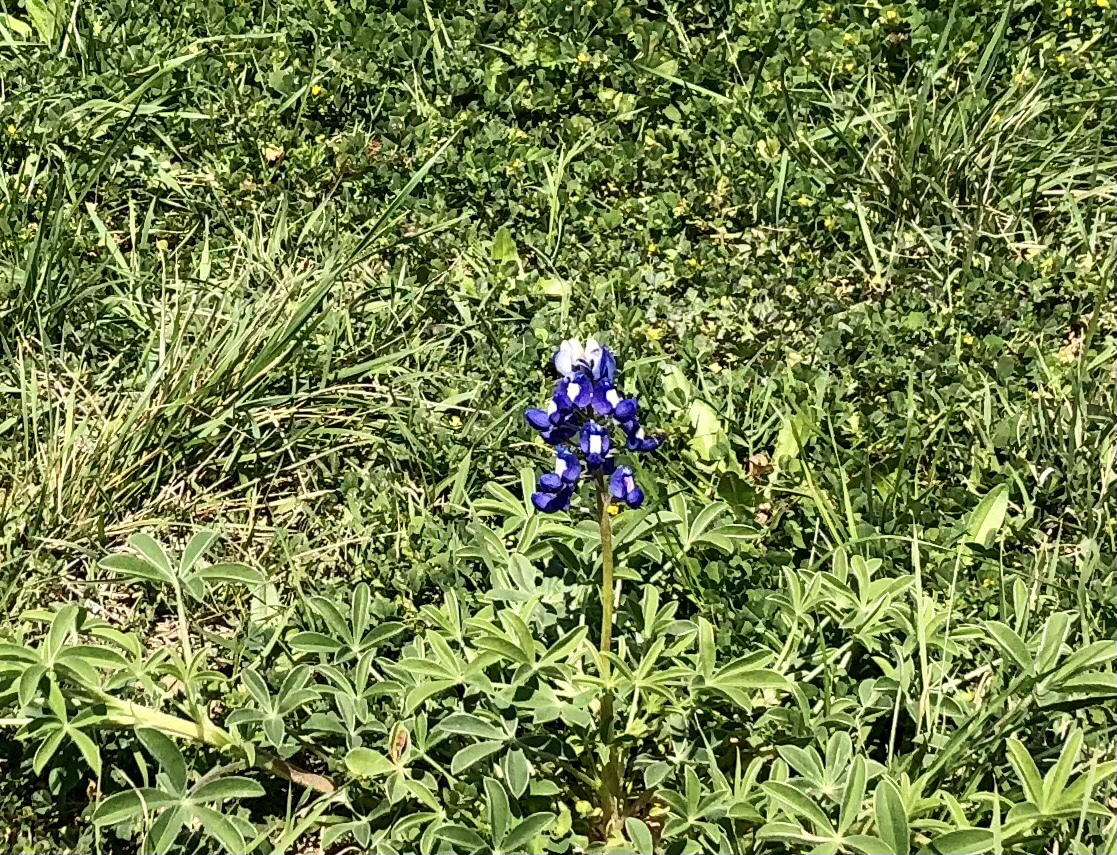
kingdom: Plantae
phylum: Tracheophyta
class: Magnoliopsida
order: Fabales
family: Fabaceae
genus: Lupinus
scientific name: Lupinus texensis
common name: Texas bluebonnet
